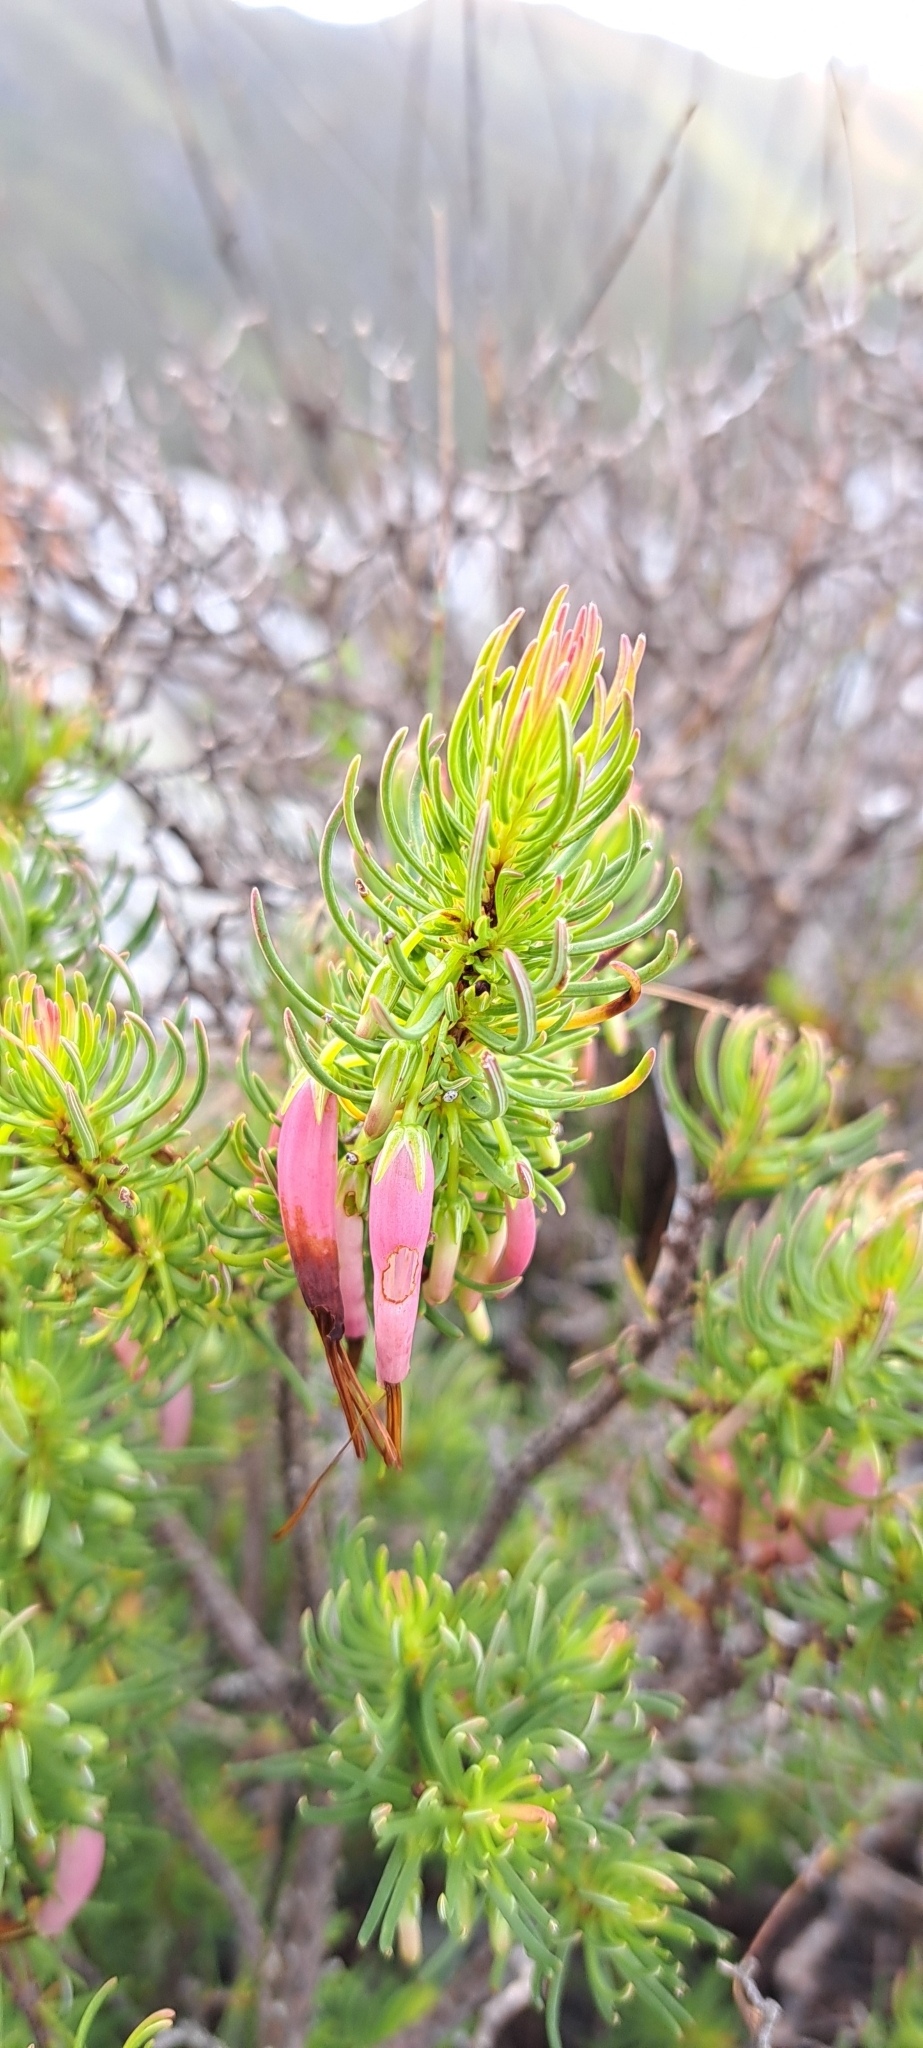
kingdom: Plantae
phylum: Tracheophyta
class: Magnoliopsida
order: Ericales
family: Ericaceae
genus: Erica
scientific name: Erica plukenetii
